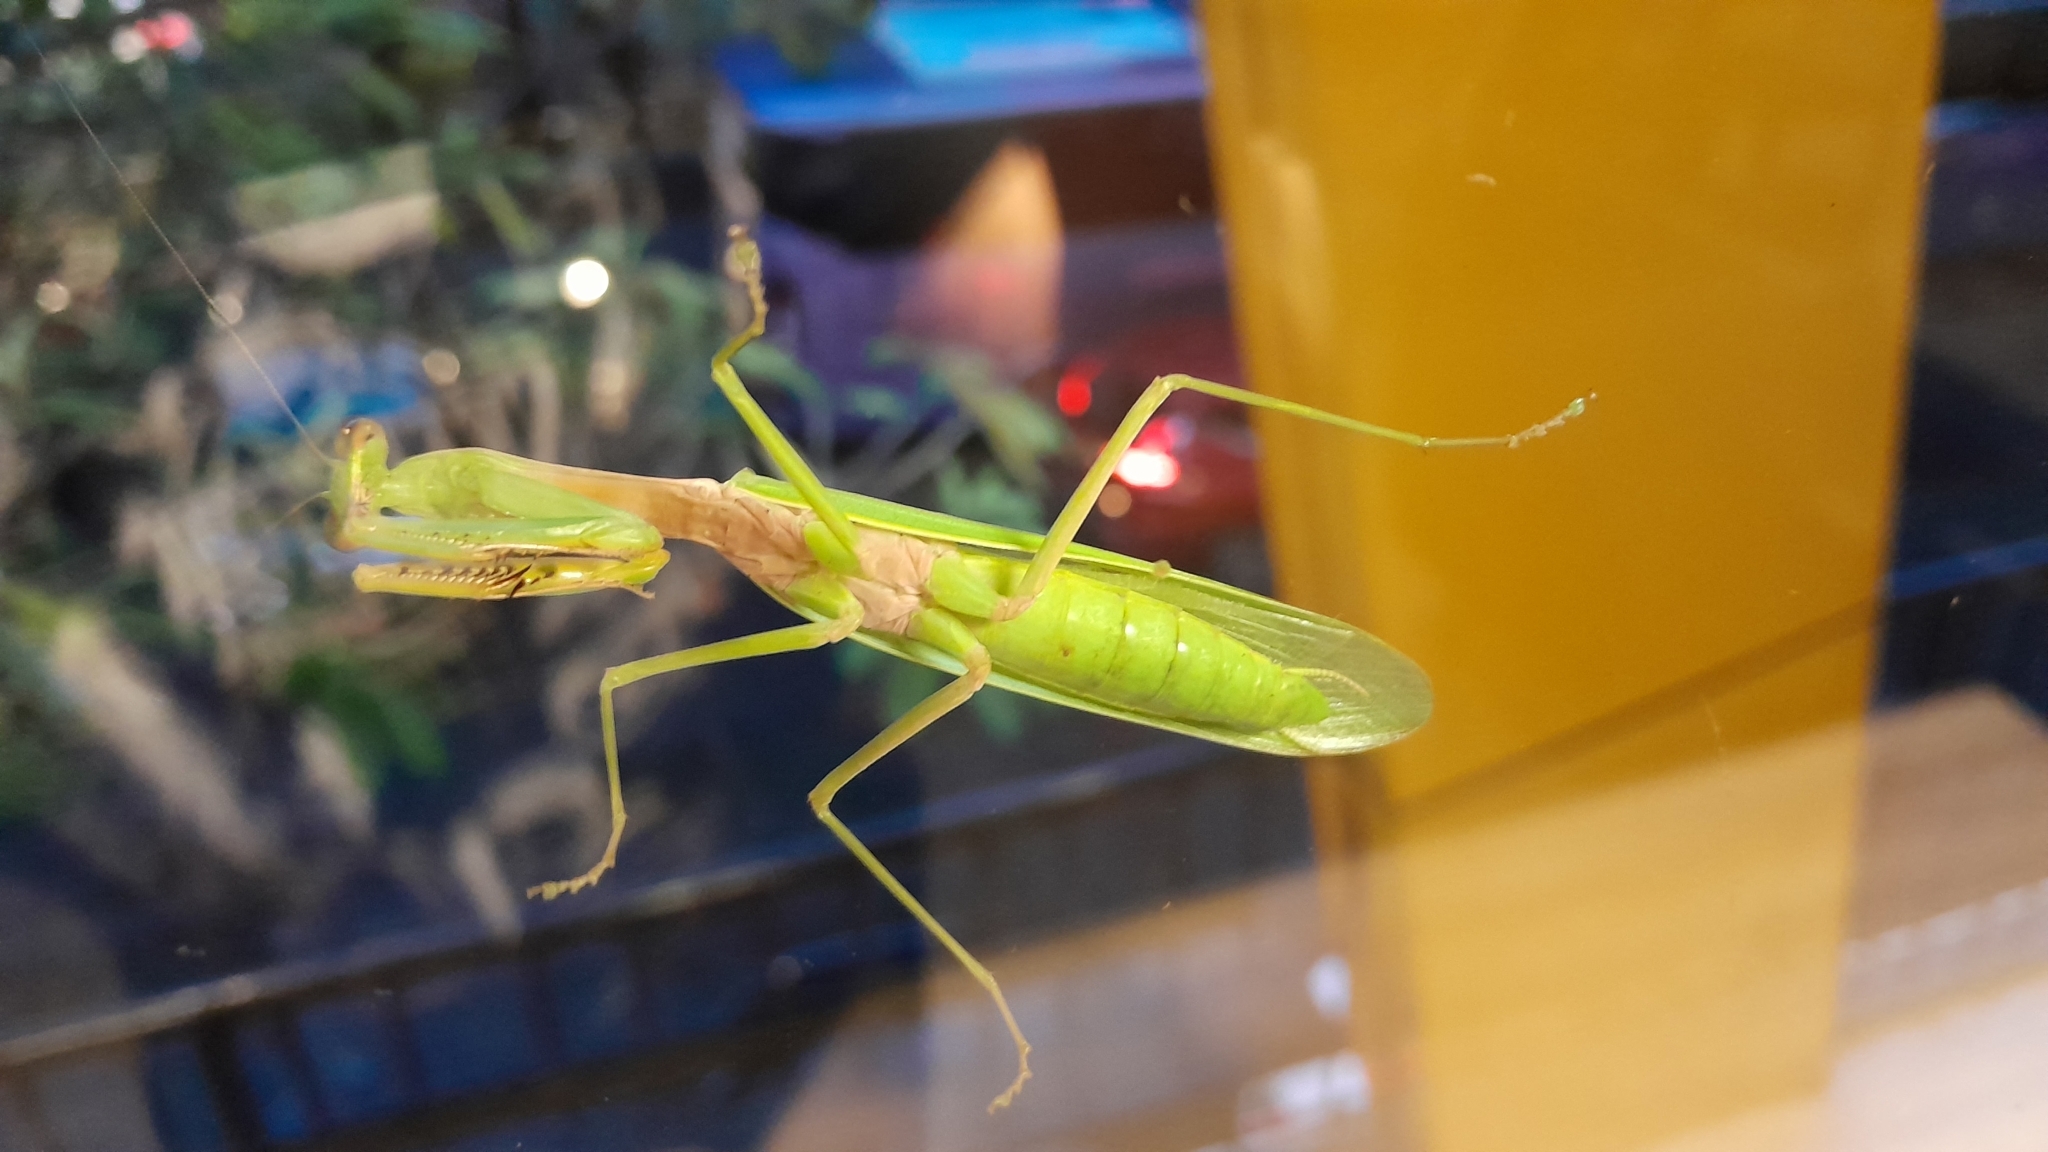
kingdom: Animalia
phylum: Arthropoda
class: Insecta
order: Mantodea
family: Mantidae
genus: Hierodula
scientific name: Hierodula venosa
